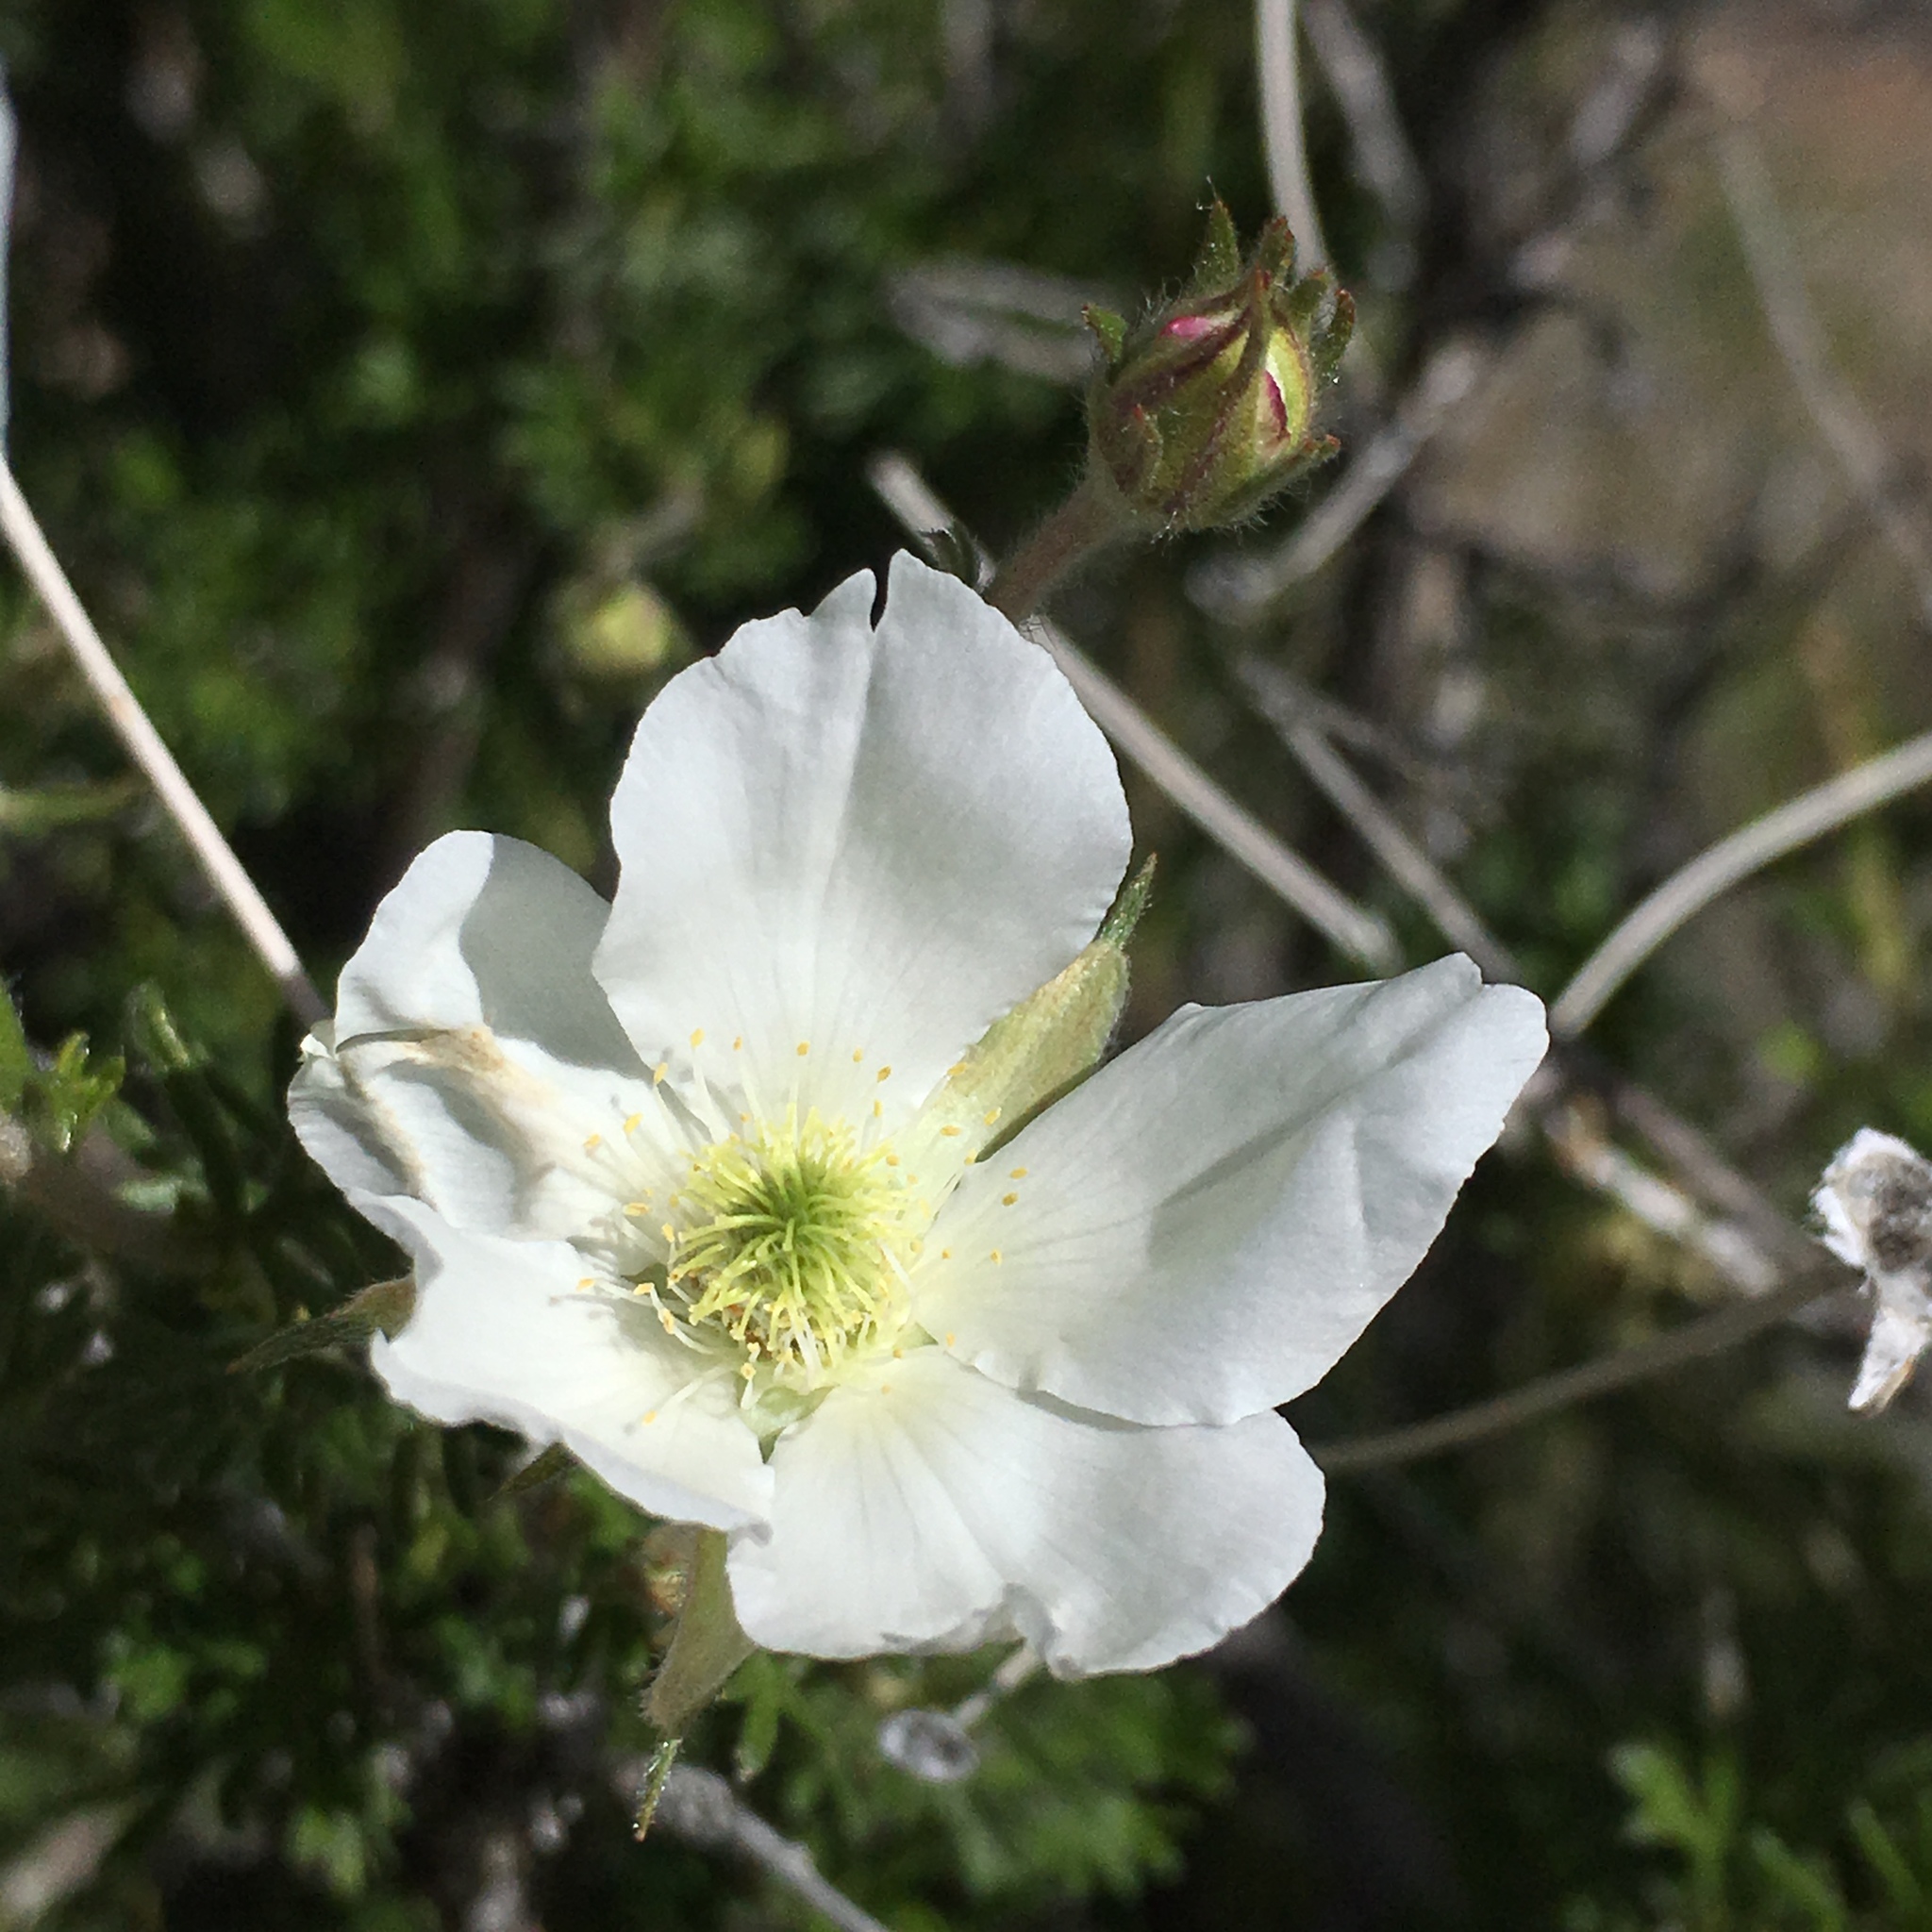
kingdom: Plantae
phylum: Tracheophyta
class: Magnoliopsida
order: Rosales
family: Rosaceae
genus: Fallugia
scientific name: Fallugia paradoxa
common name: Apache-plume
